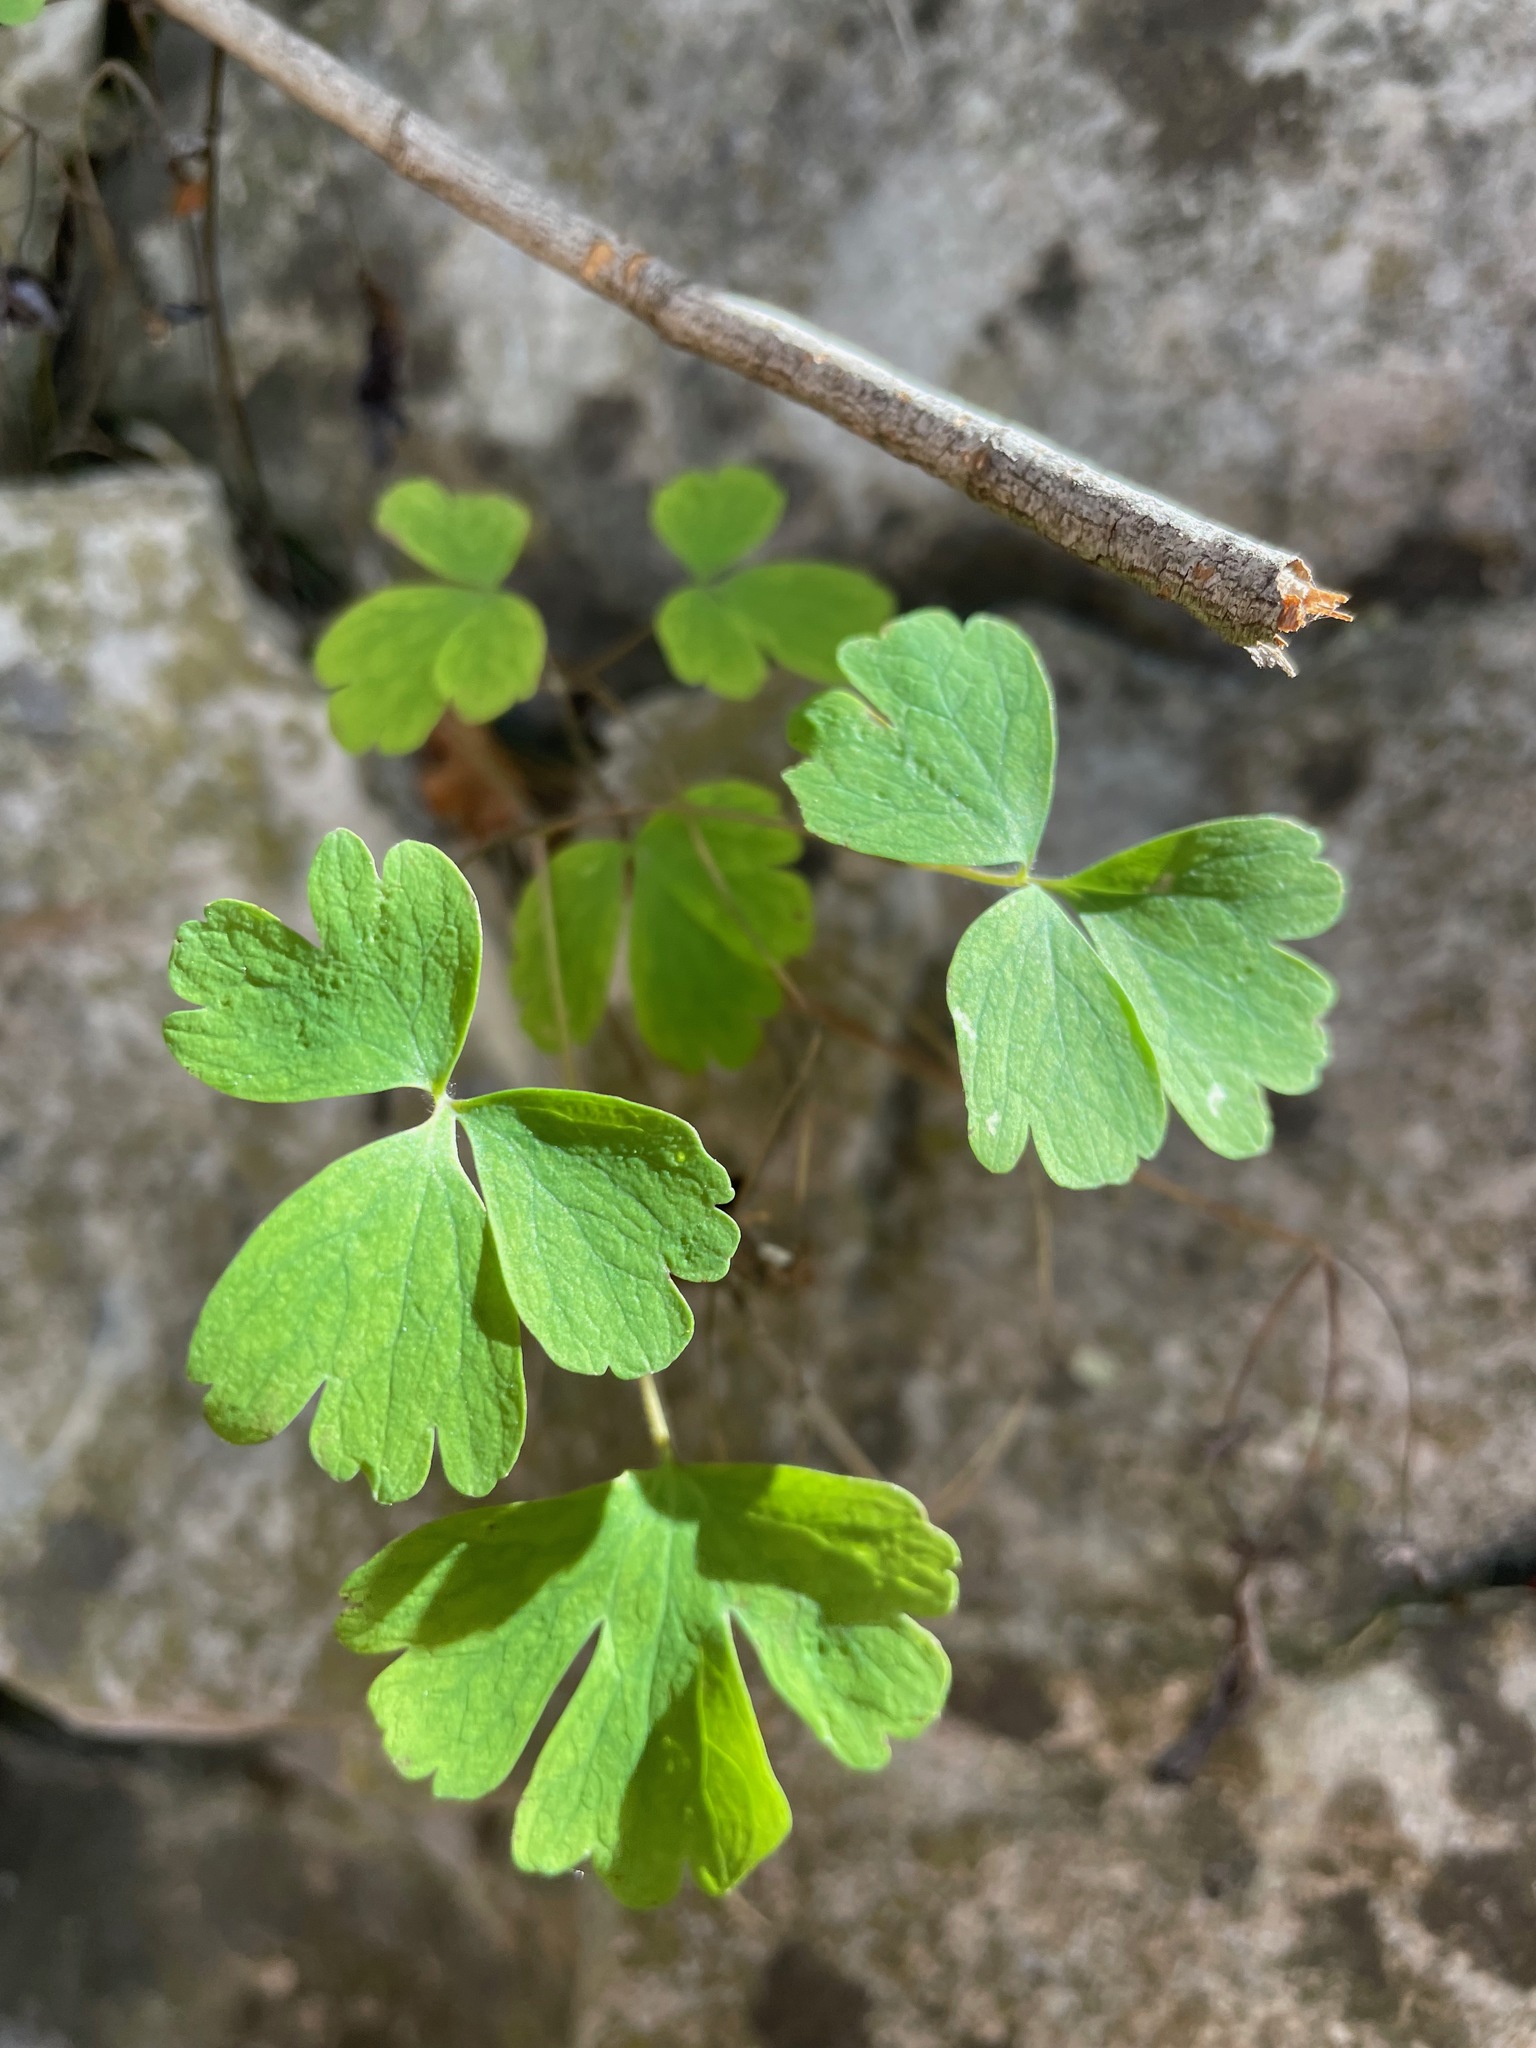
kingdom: Plantae
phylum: Tracheophyta
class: Magnoliopsida
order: Ranunculales
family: Ranunculaceae
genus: Aquilegia
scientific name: Aquilegia canadensis
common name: American columbine
